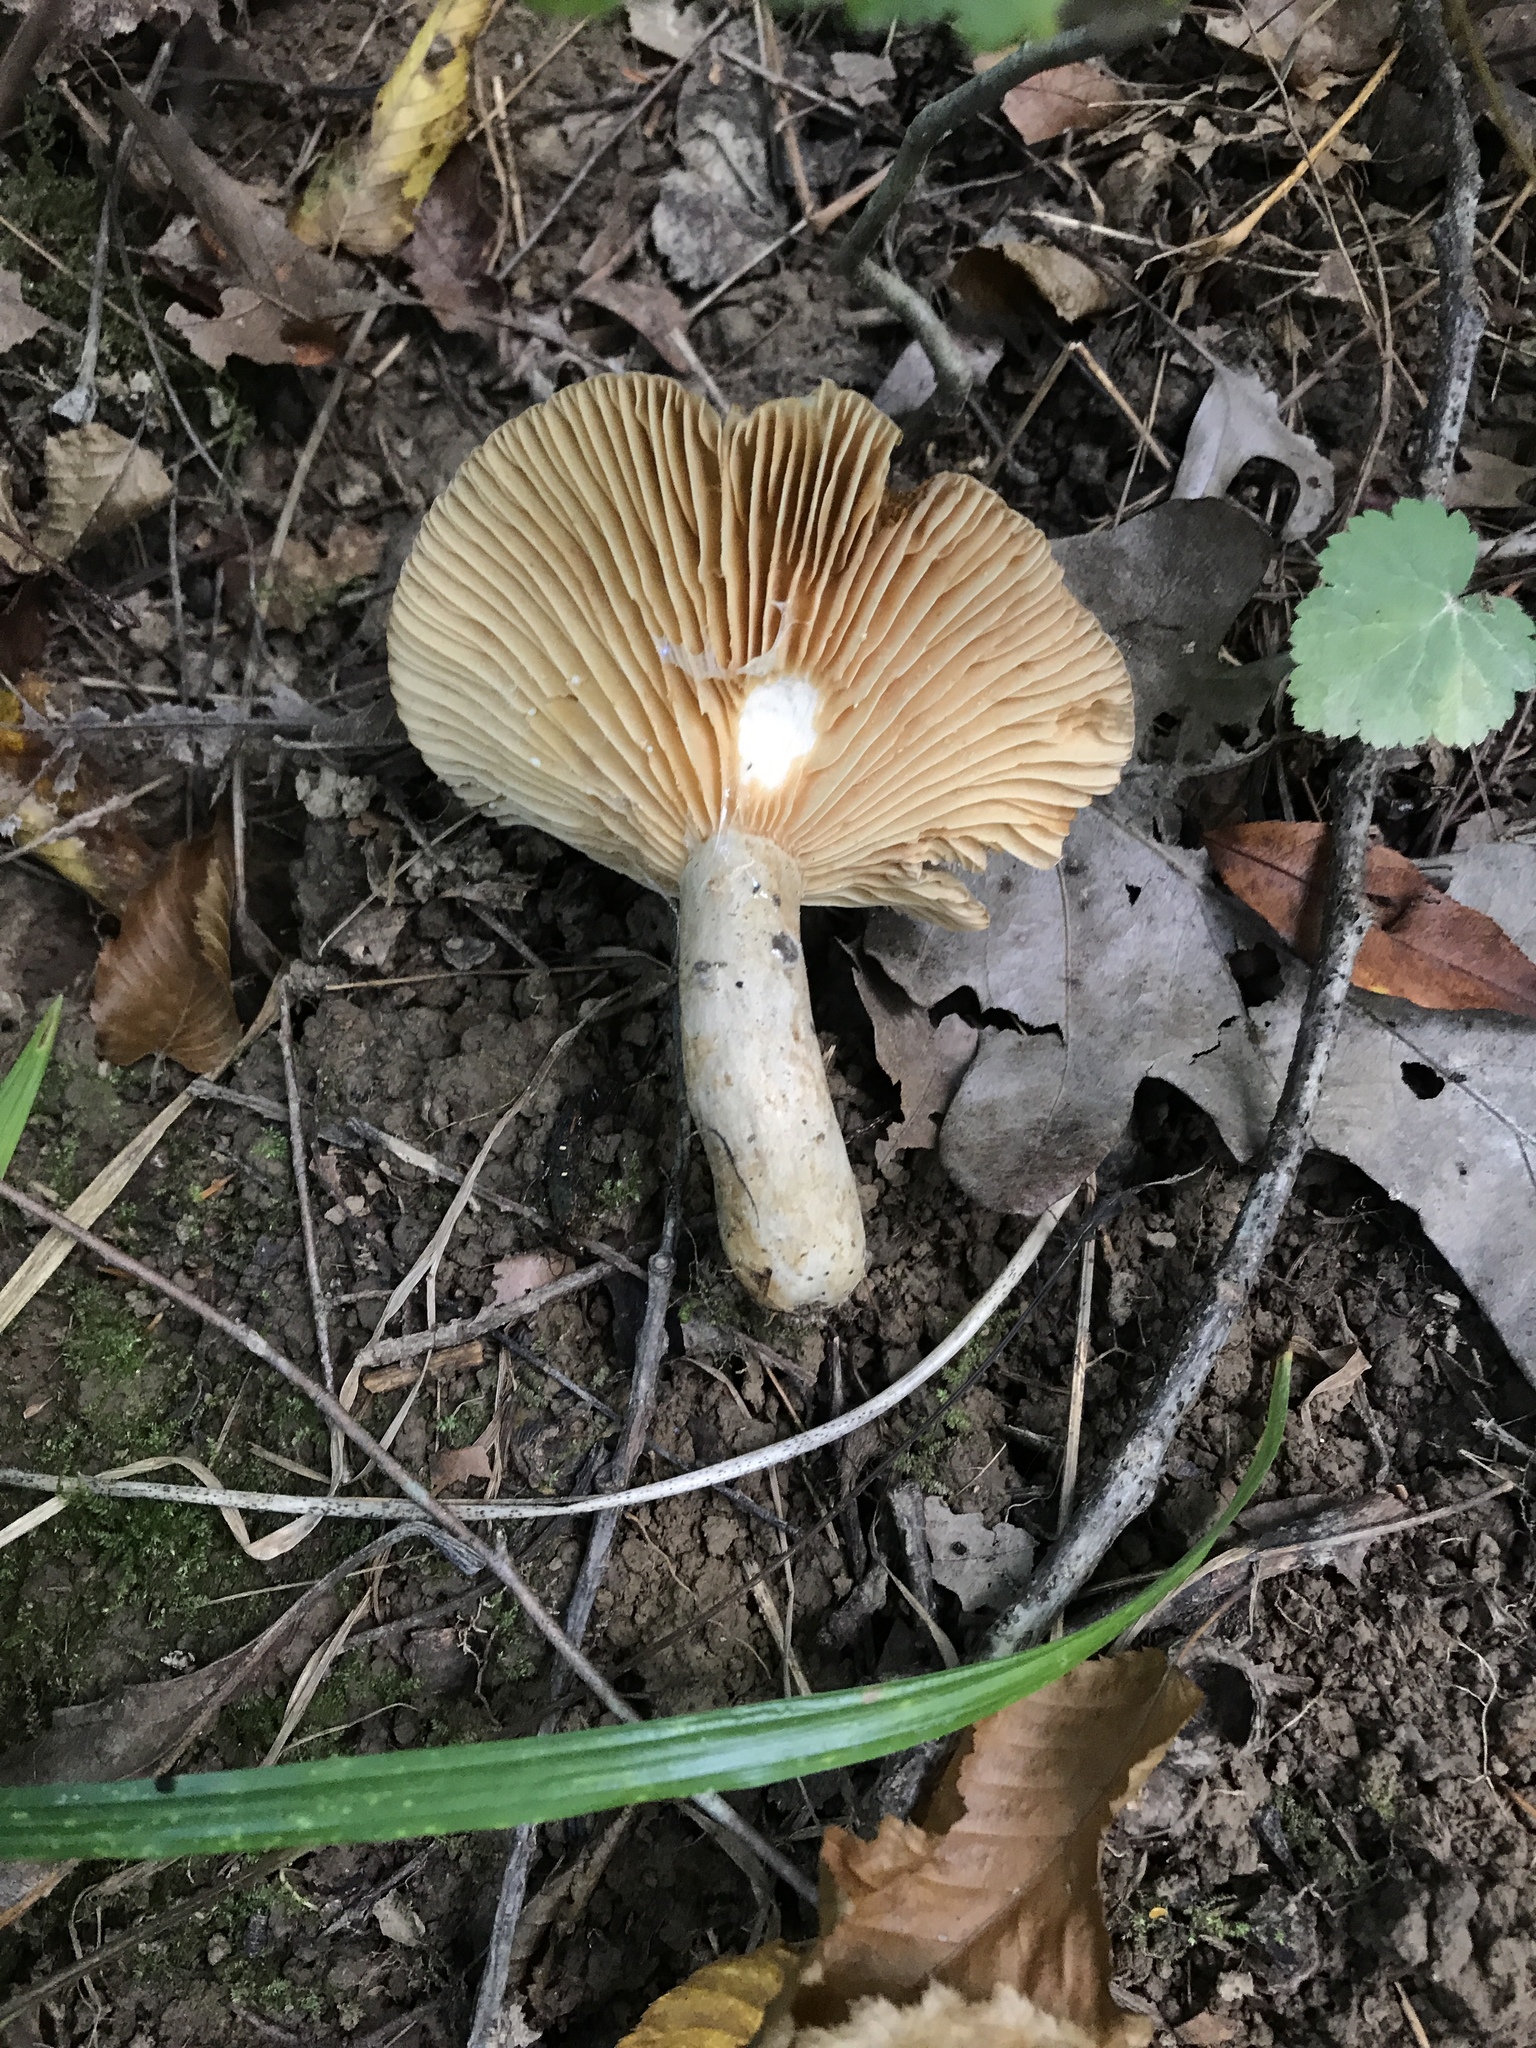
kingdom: Fungi
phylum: Basidiomycota
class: Agaricomycetes
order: Russulales
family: Russulaceae
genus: Lactarius
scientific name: Lactarius pubescens
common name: Bearded milkcap
